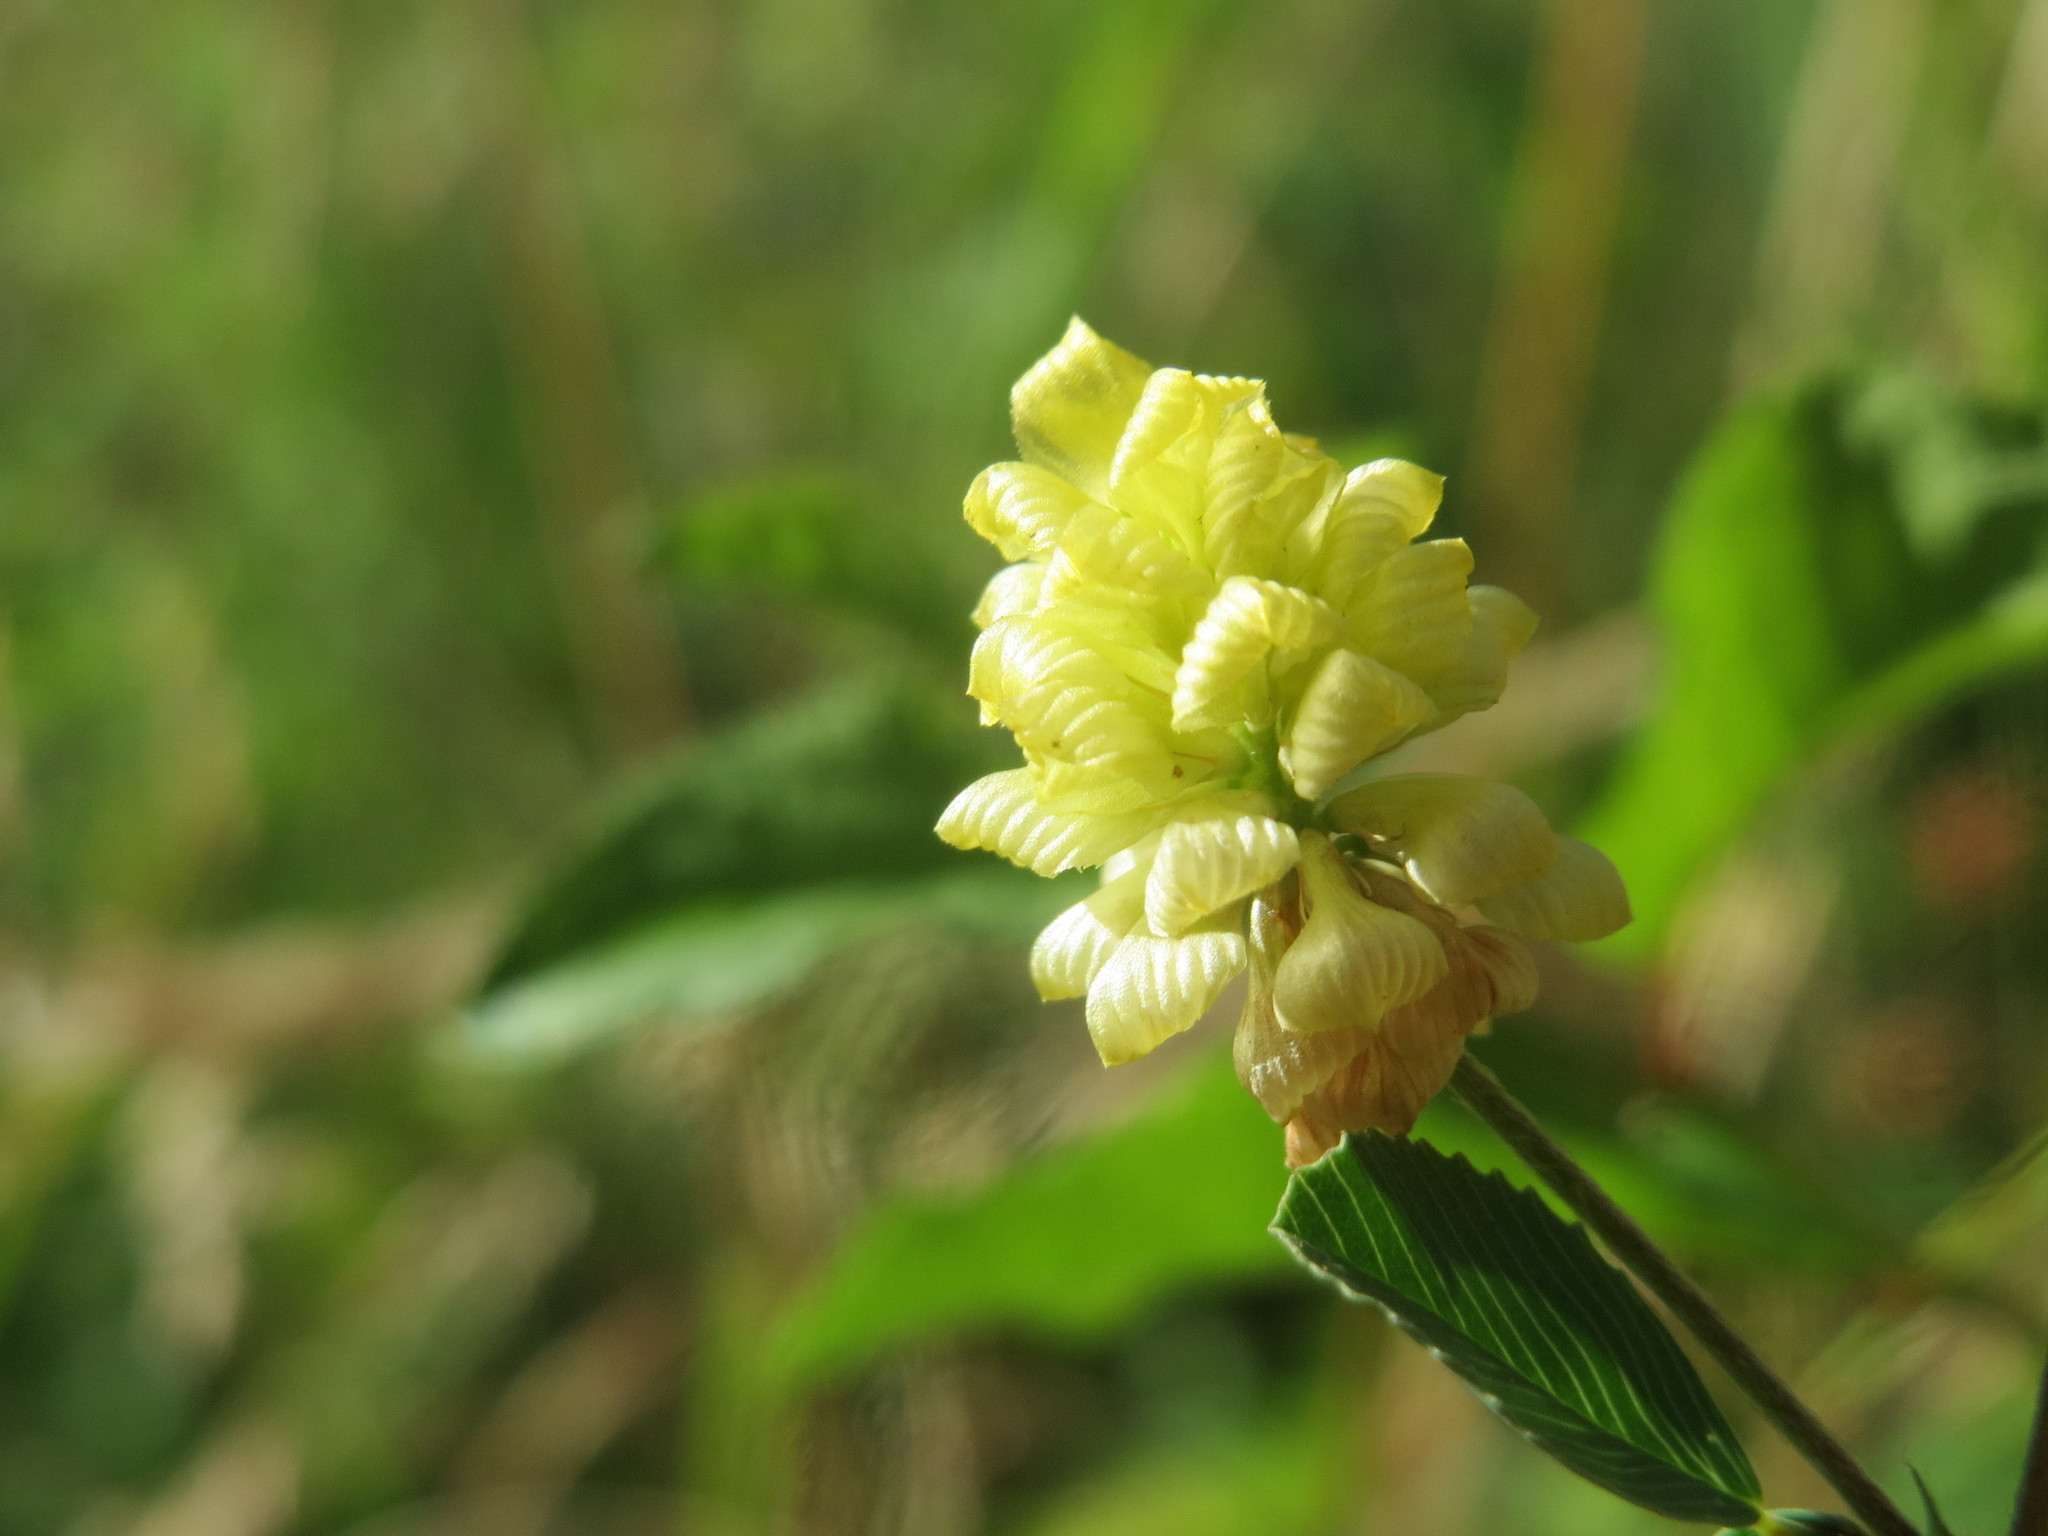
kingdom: Plantae
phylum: Tracheophyta
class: Magnoliopsida
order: Fabales
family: Fabaceae
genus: Trifolium
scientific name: Trifolium campestre
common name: Field clover
